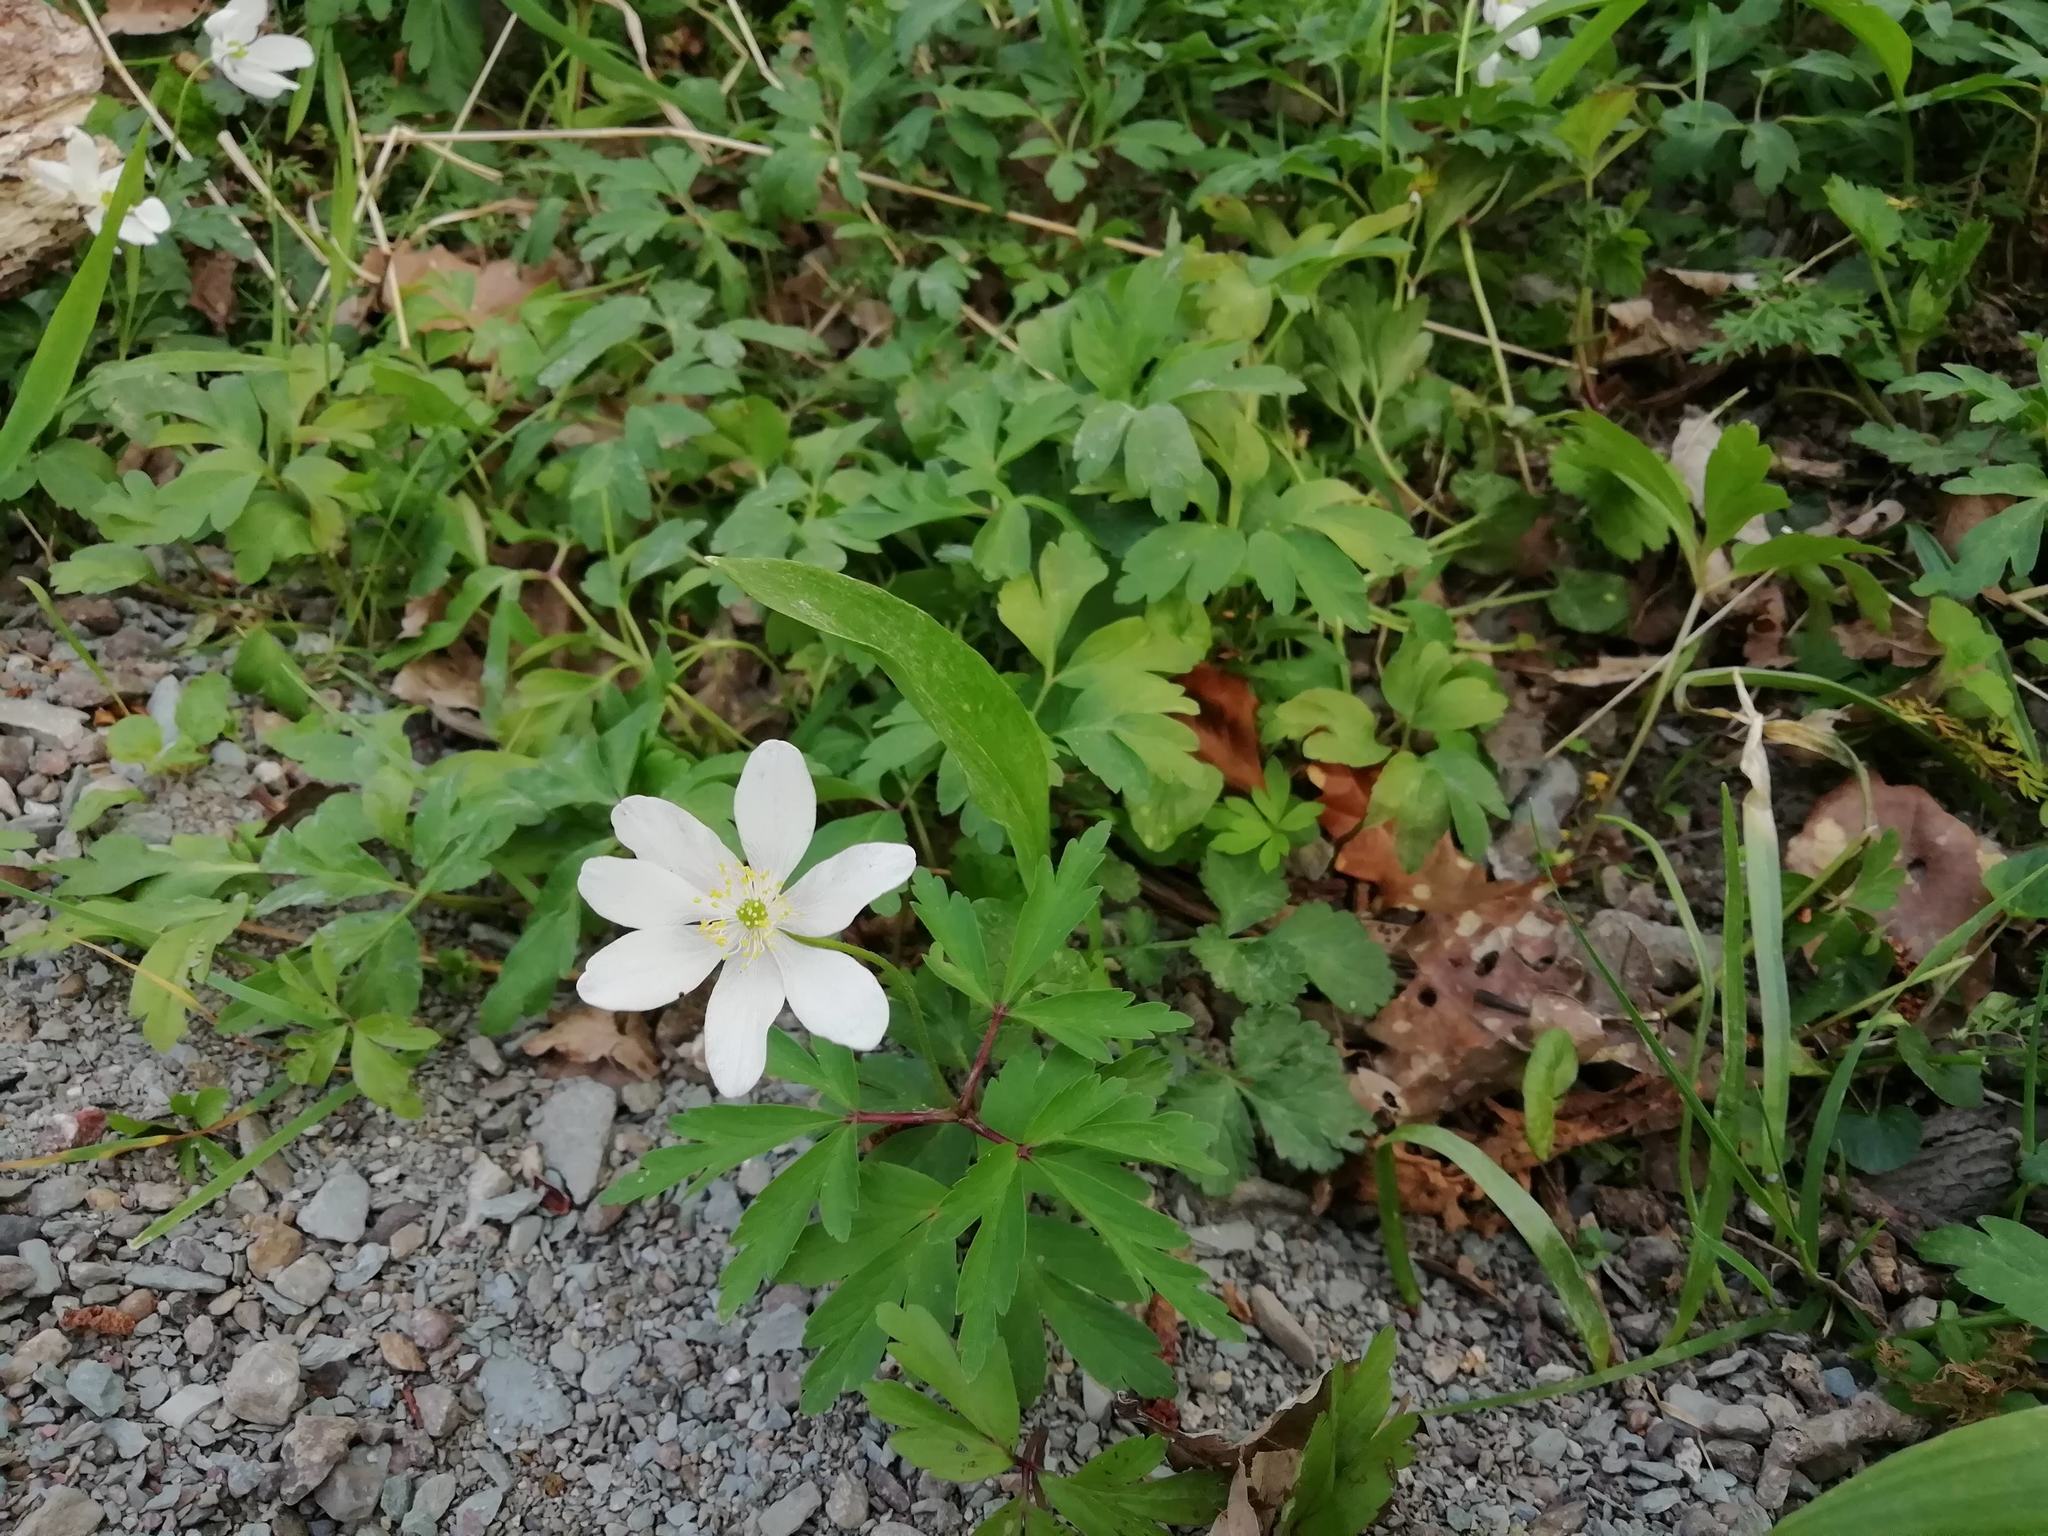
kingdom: Plantae
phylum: Tracheophyta
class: Magnoliopsida
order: Ranunculales
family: Ranunculaceae
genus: Anemone
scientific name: Anemone nemorosa
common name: Wood anemone
